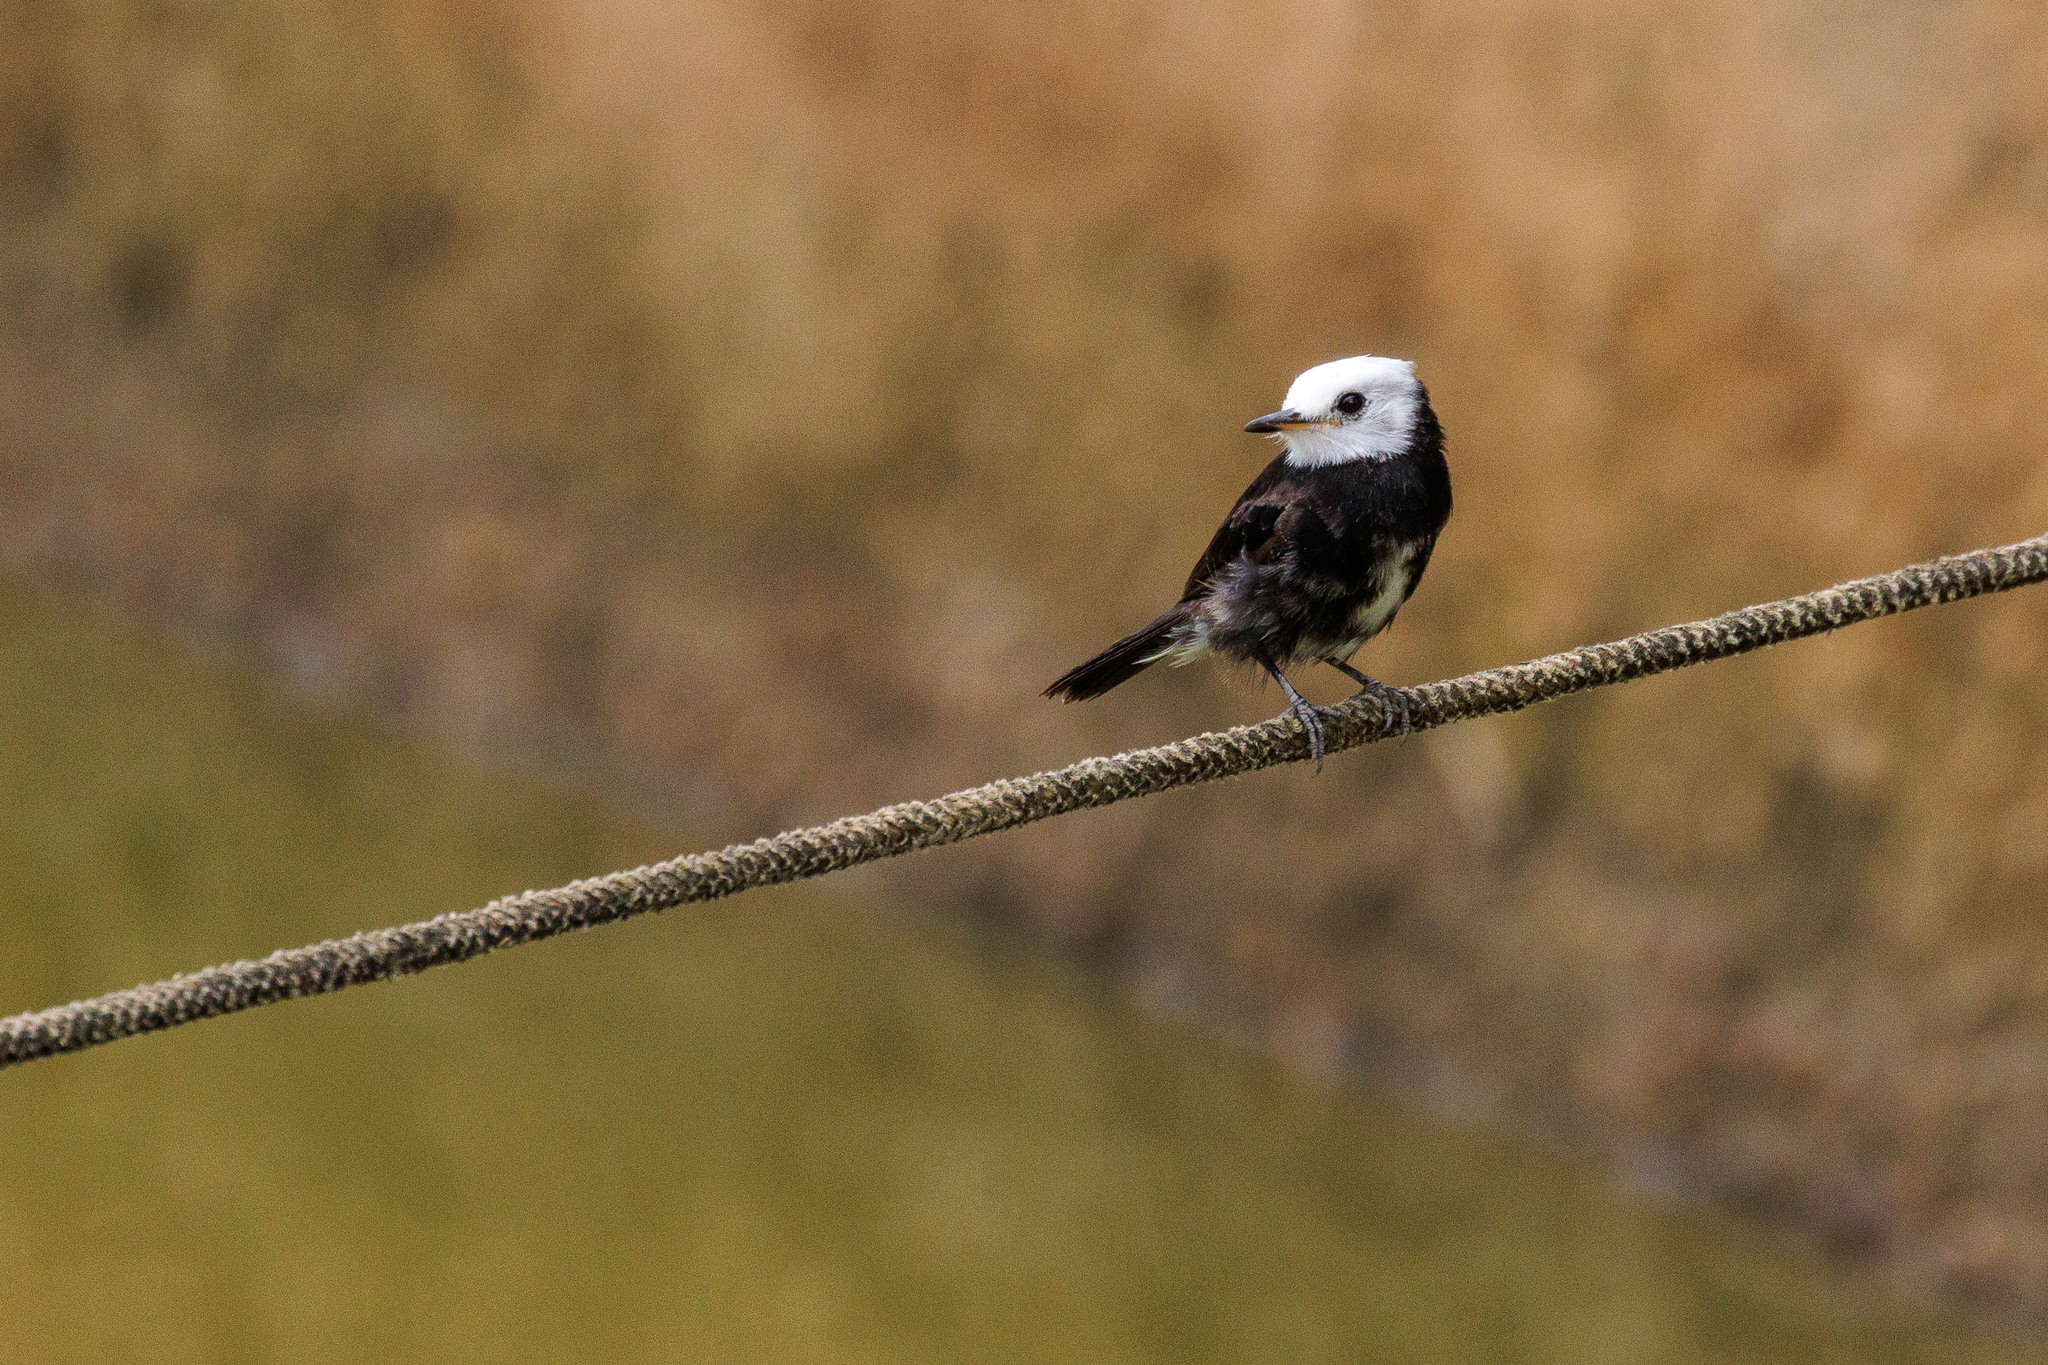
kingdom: Animalia
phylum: Chordata
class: Aves
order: Passeriformes
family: Tyrannidae
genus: Arundinicola
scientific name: Arundinicola leucocephala
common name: White-headed marsh tyrant
